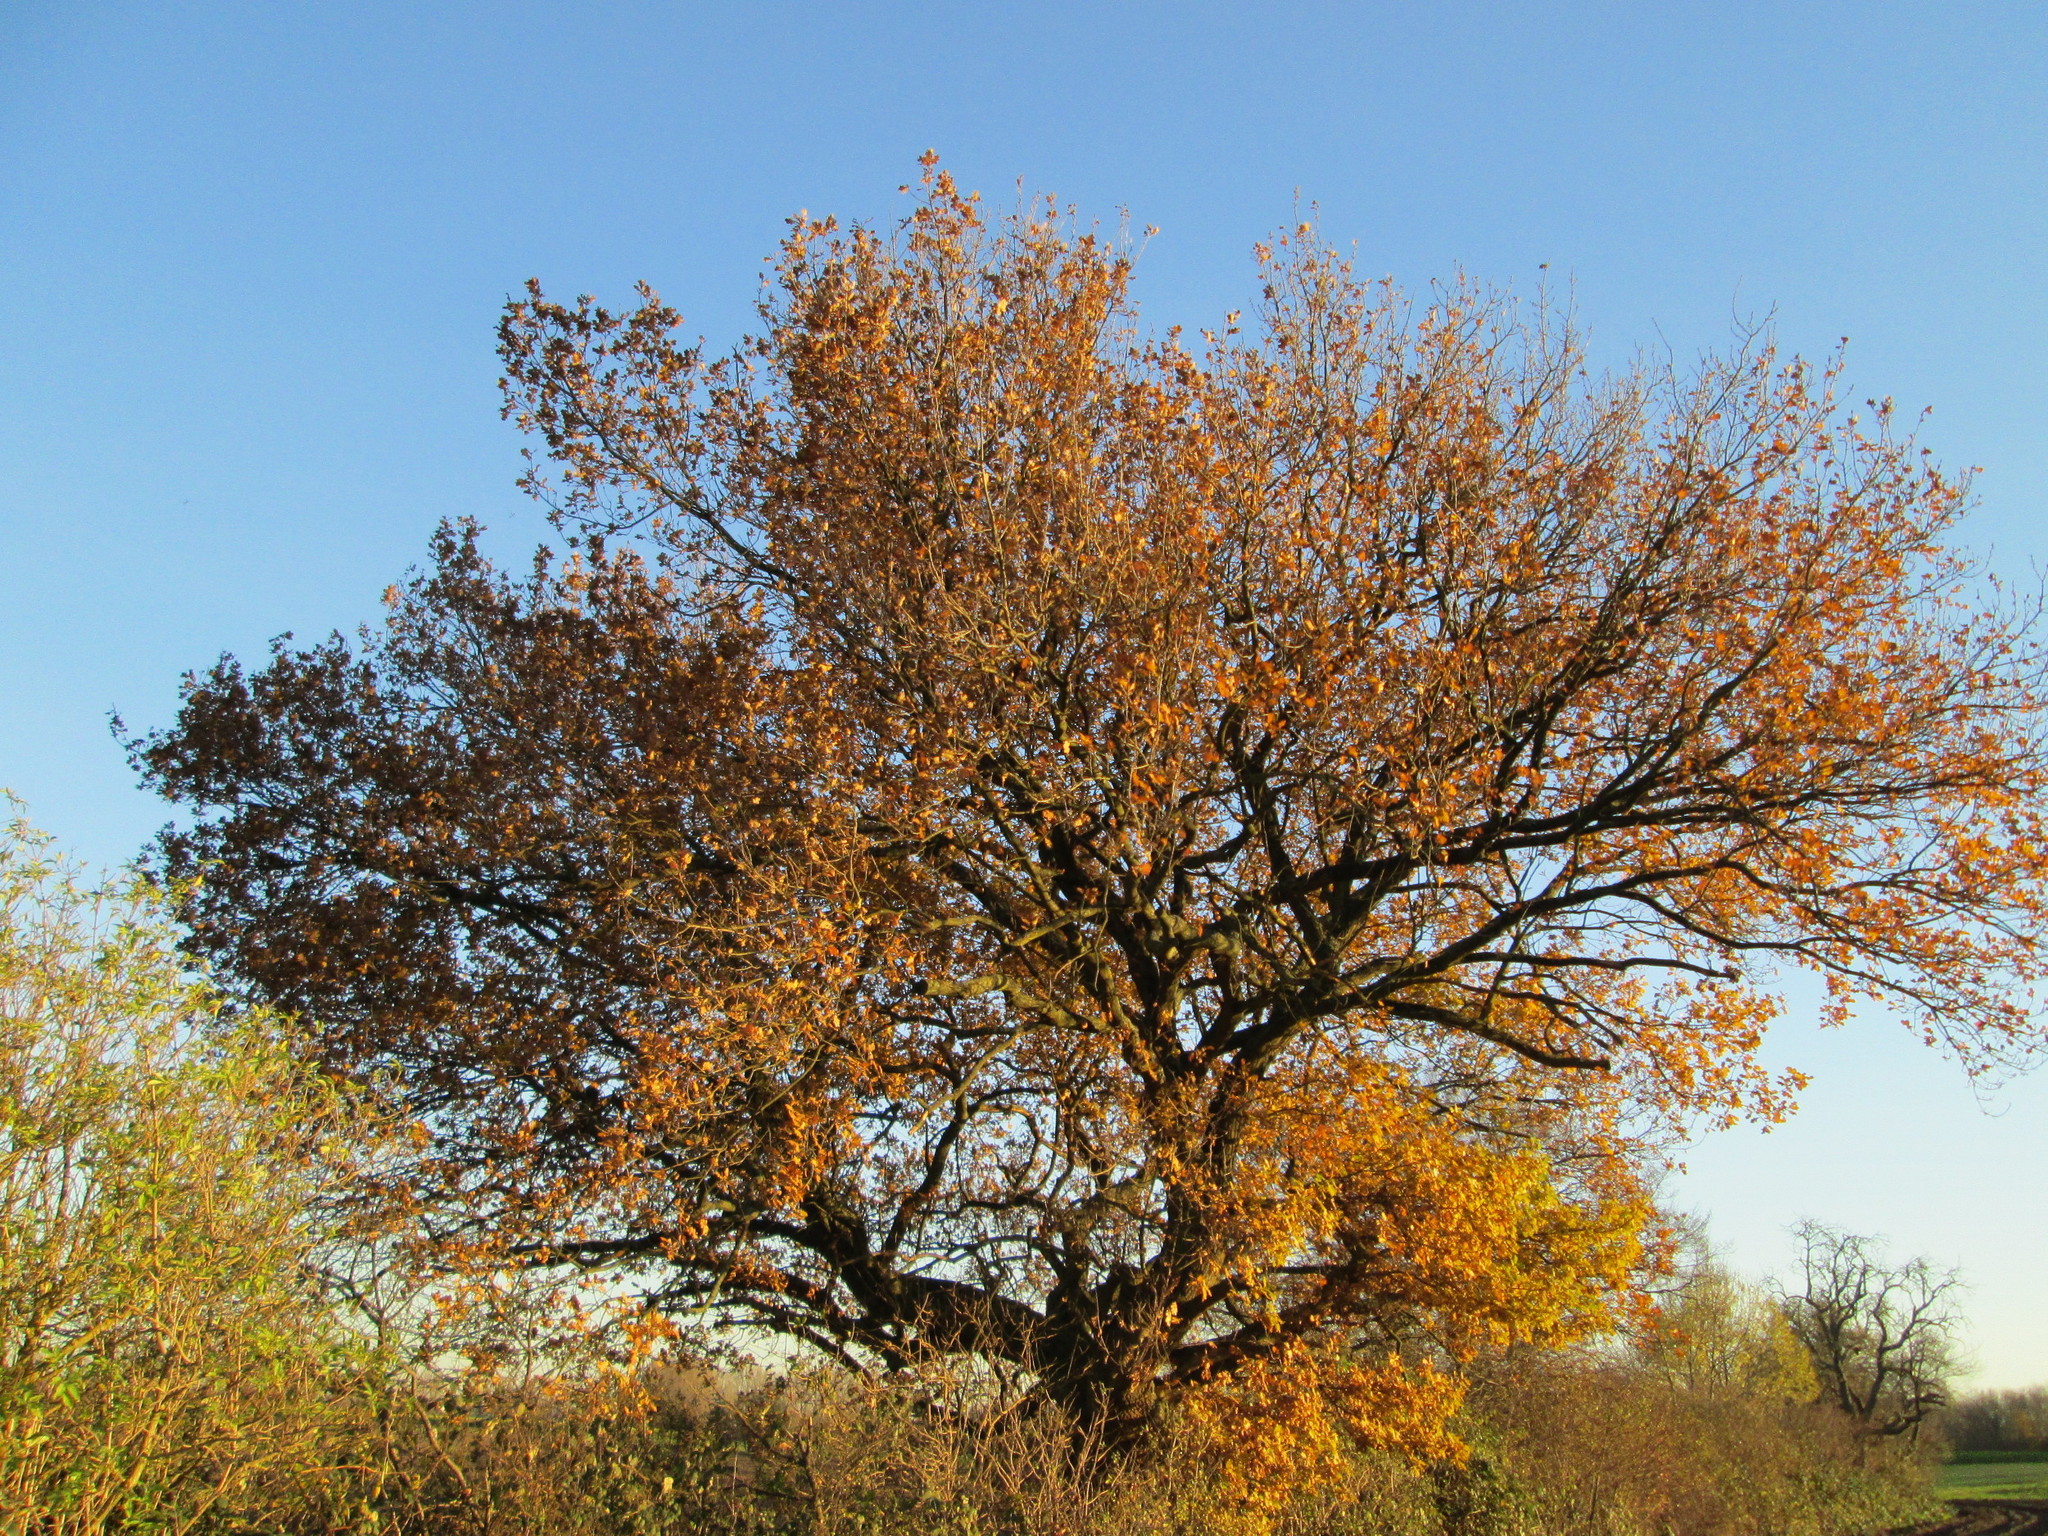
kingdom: Plantae
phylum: Tracheophyta
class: Magnoliopsida
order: Fagales
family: Fagaceae
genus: Quercus
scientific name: Quercus robur
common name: Pedunculate oak
